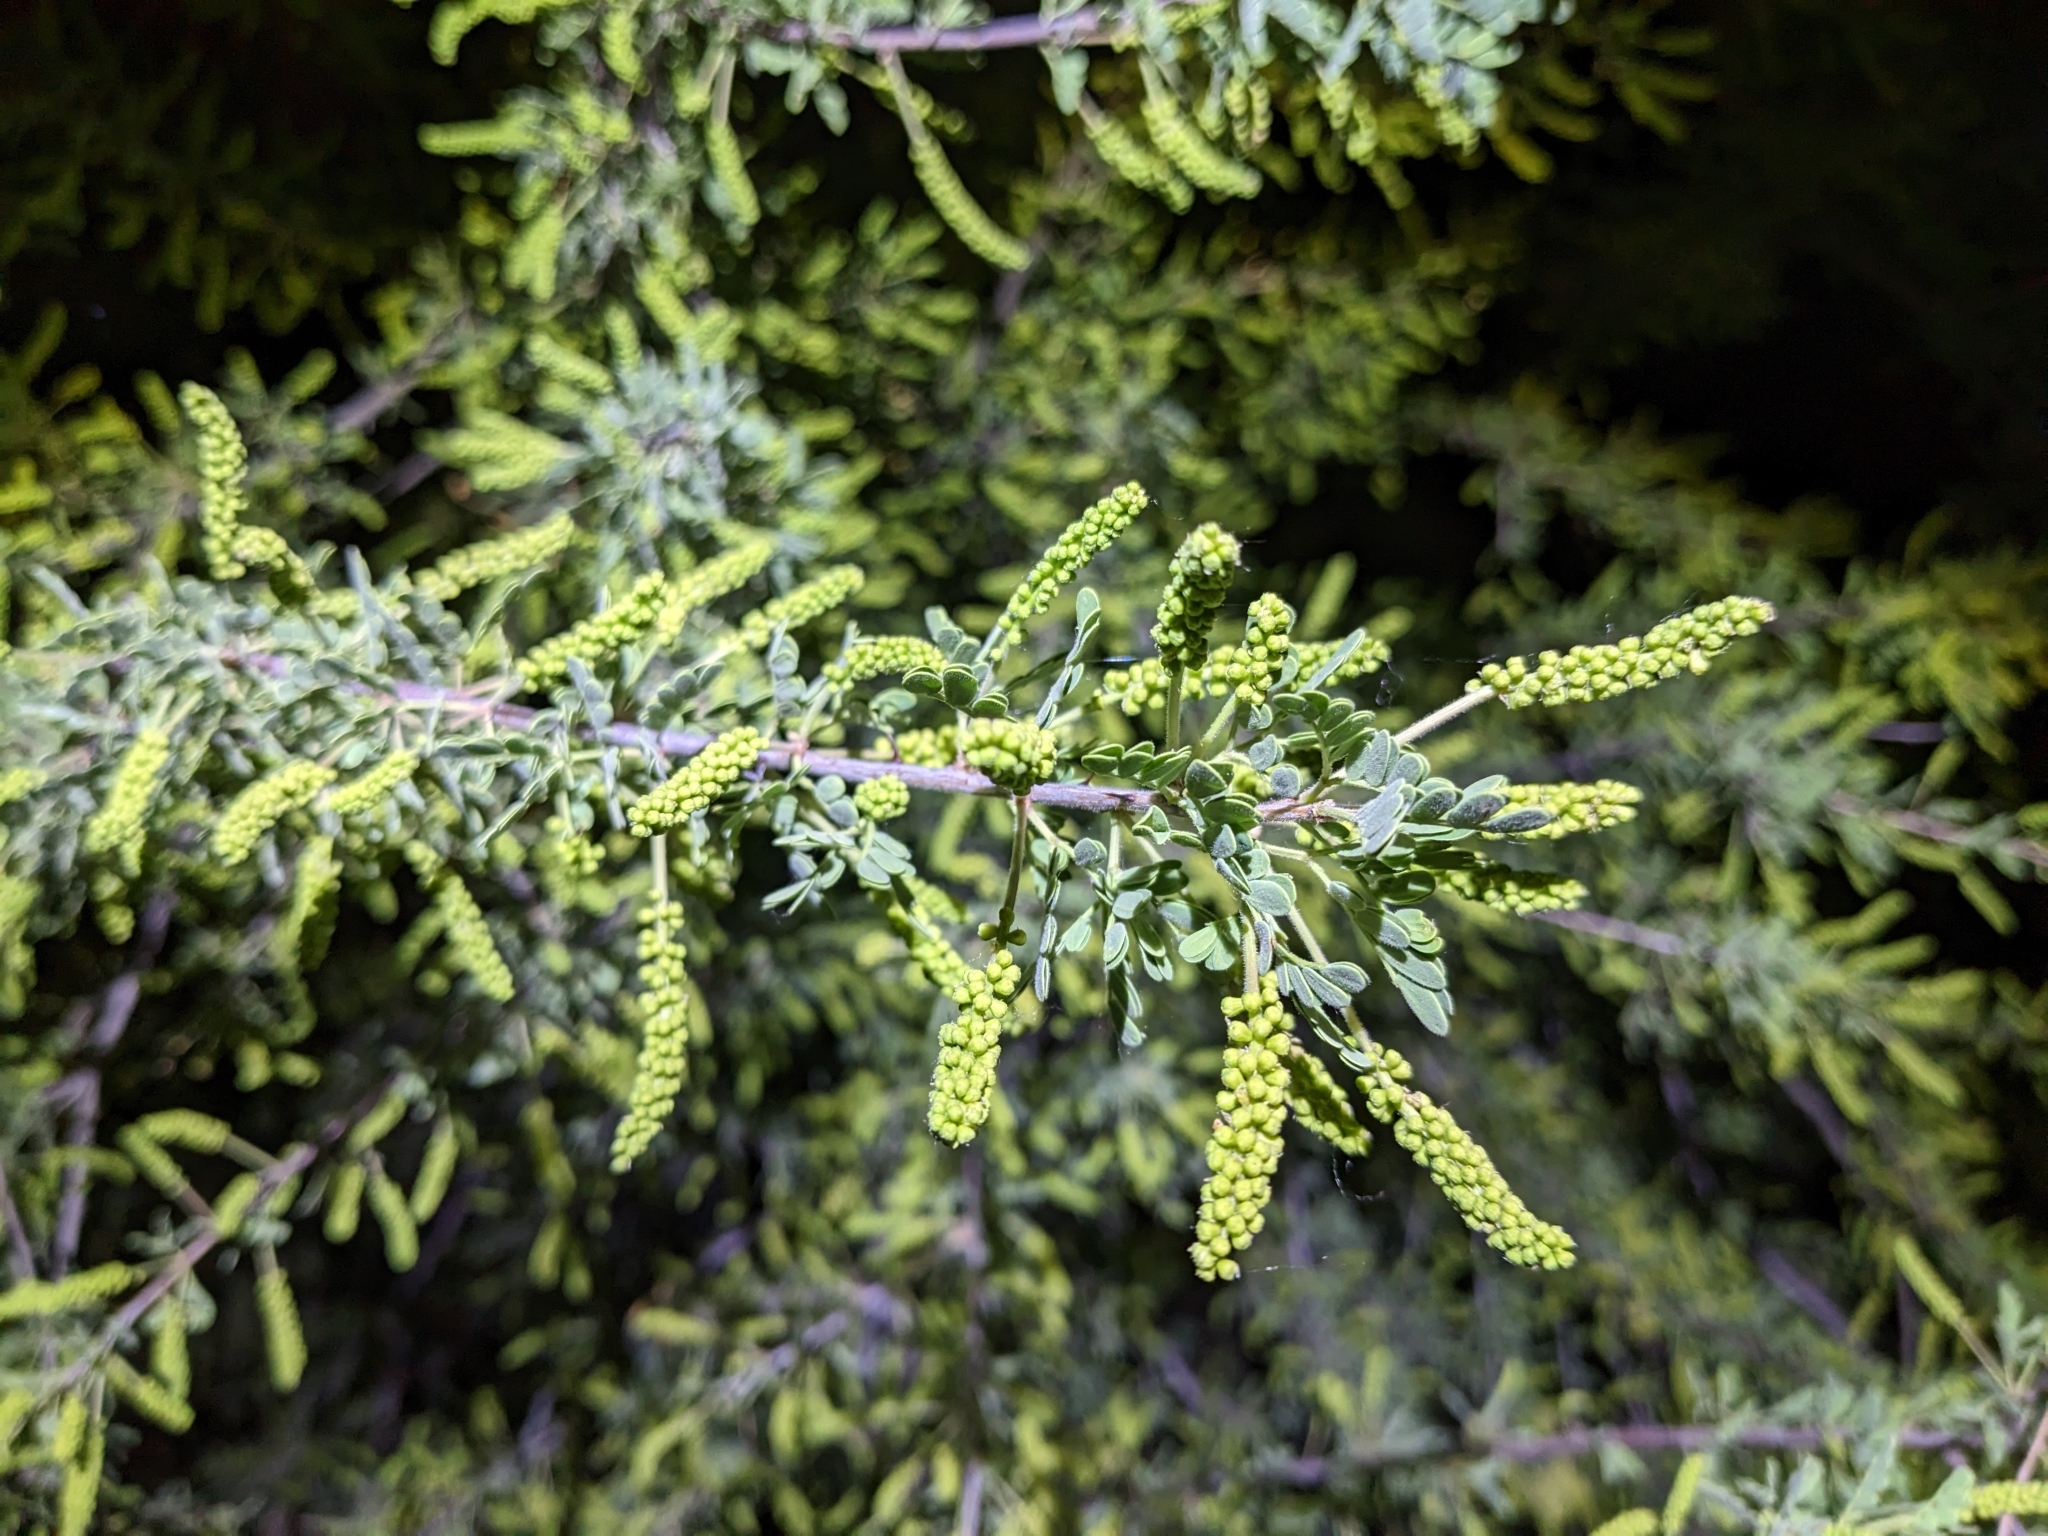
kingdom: Plantae
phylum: Tracheophyta
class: Magnoliopsida
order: Fabales
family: Fabaceae
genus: Senegalia
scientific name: Senegalia greggii
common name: Texas-mimosa
